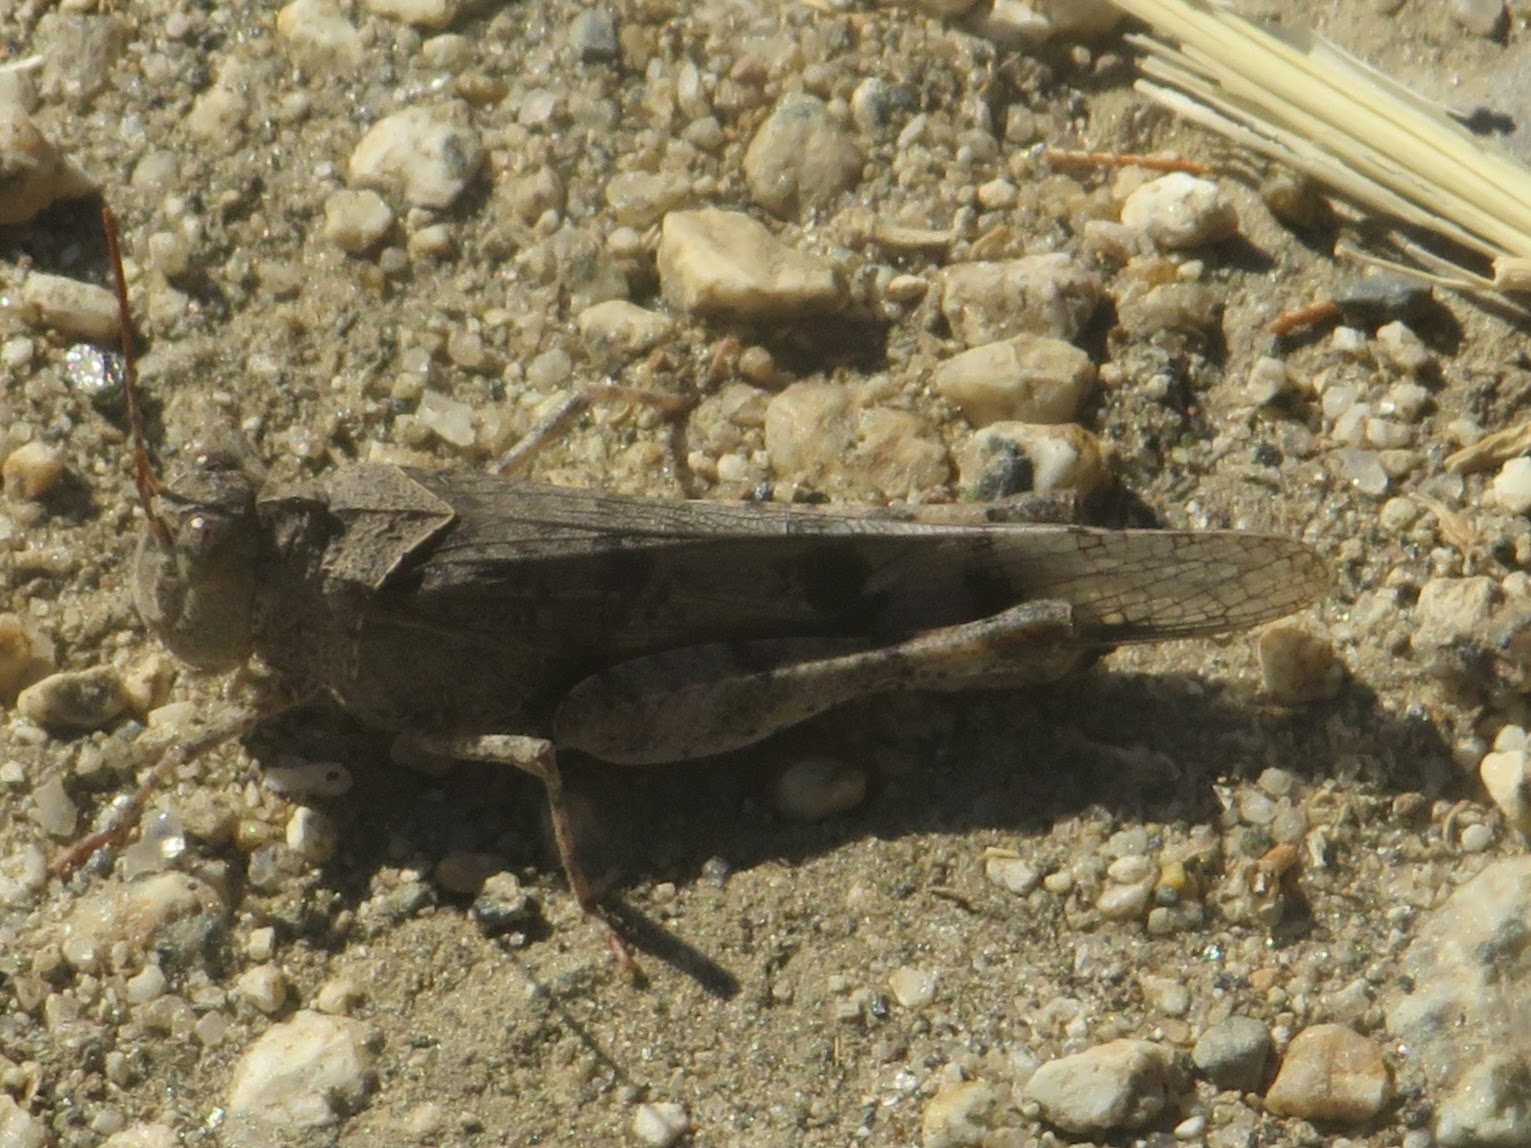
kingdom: Animalia
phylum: Arthropoda
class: Insecta
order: Orthoptera
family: Acrididae
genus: Dissosteira
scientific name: Dissosteira pictipennis
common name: California rose-winged grasshopper
